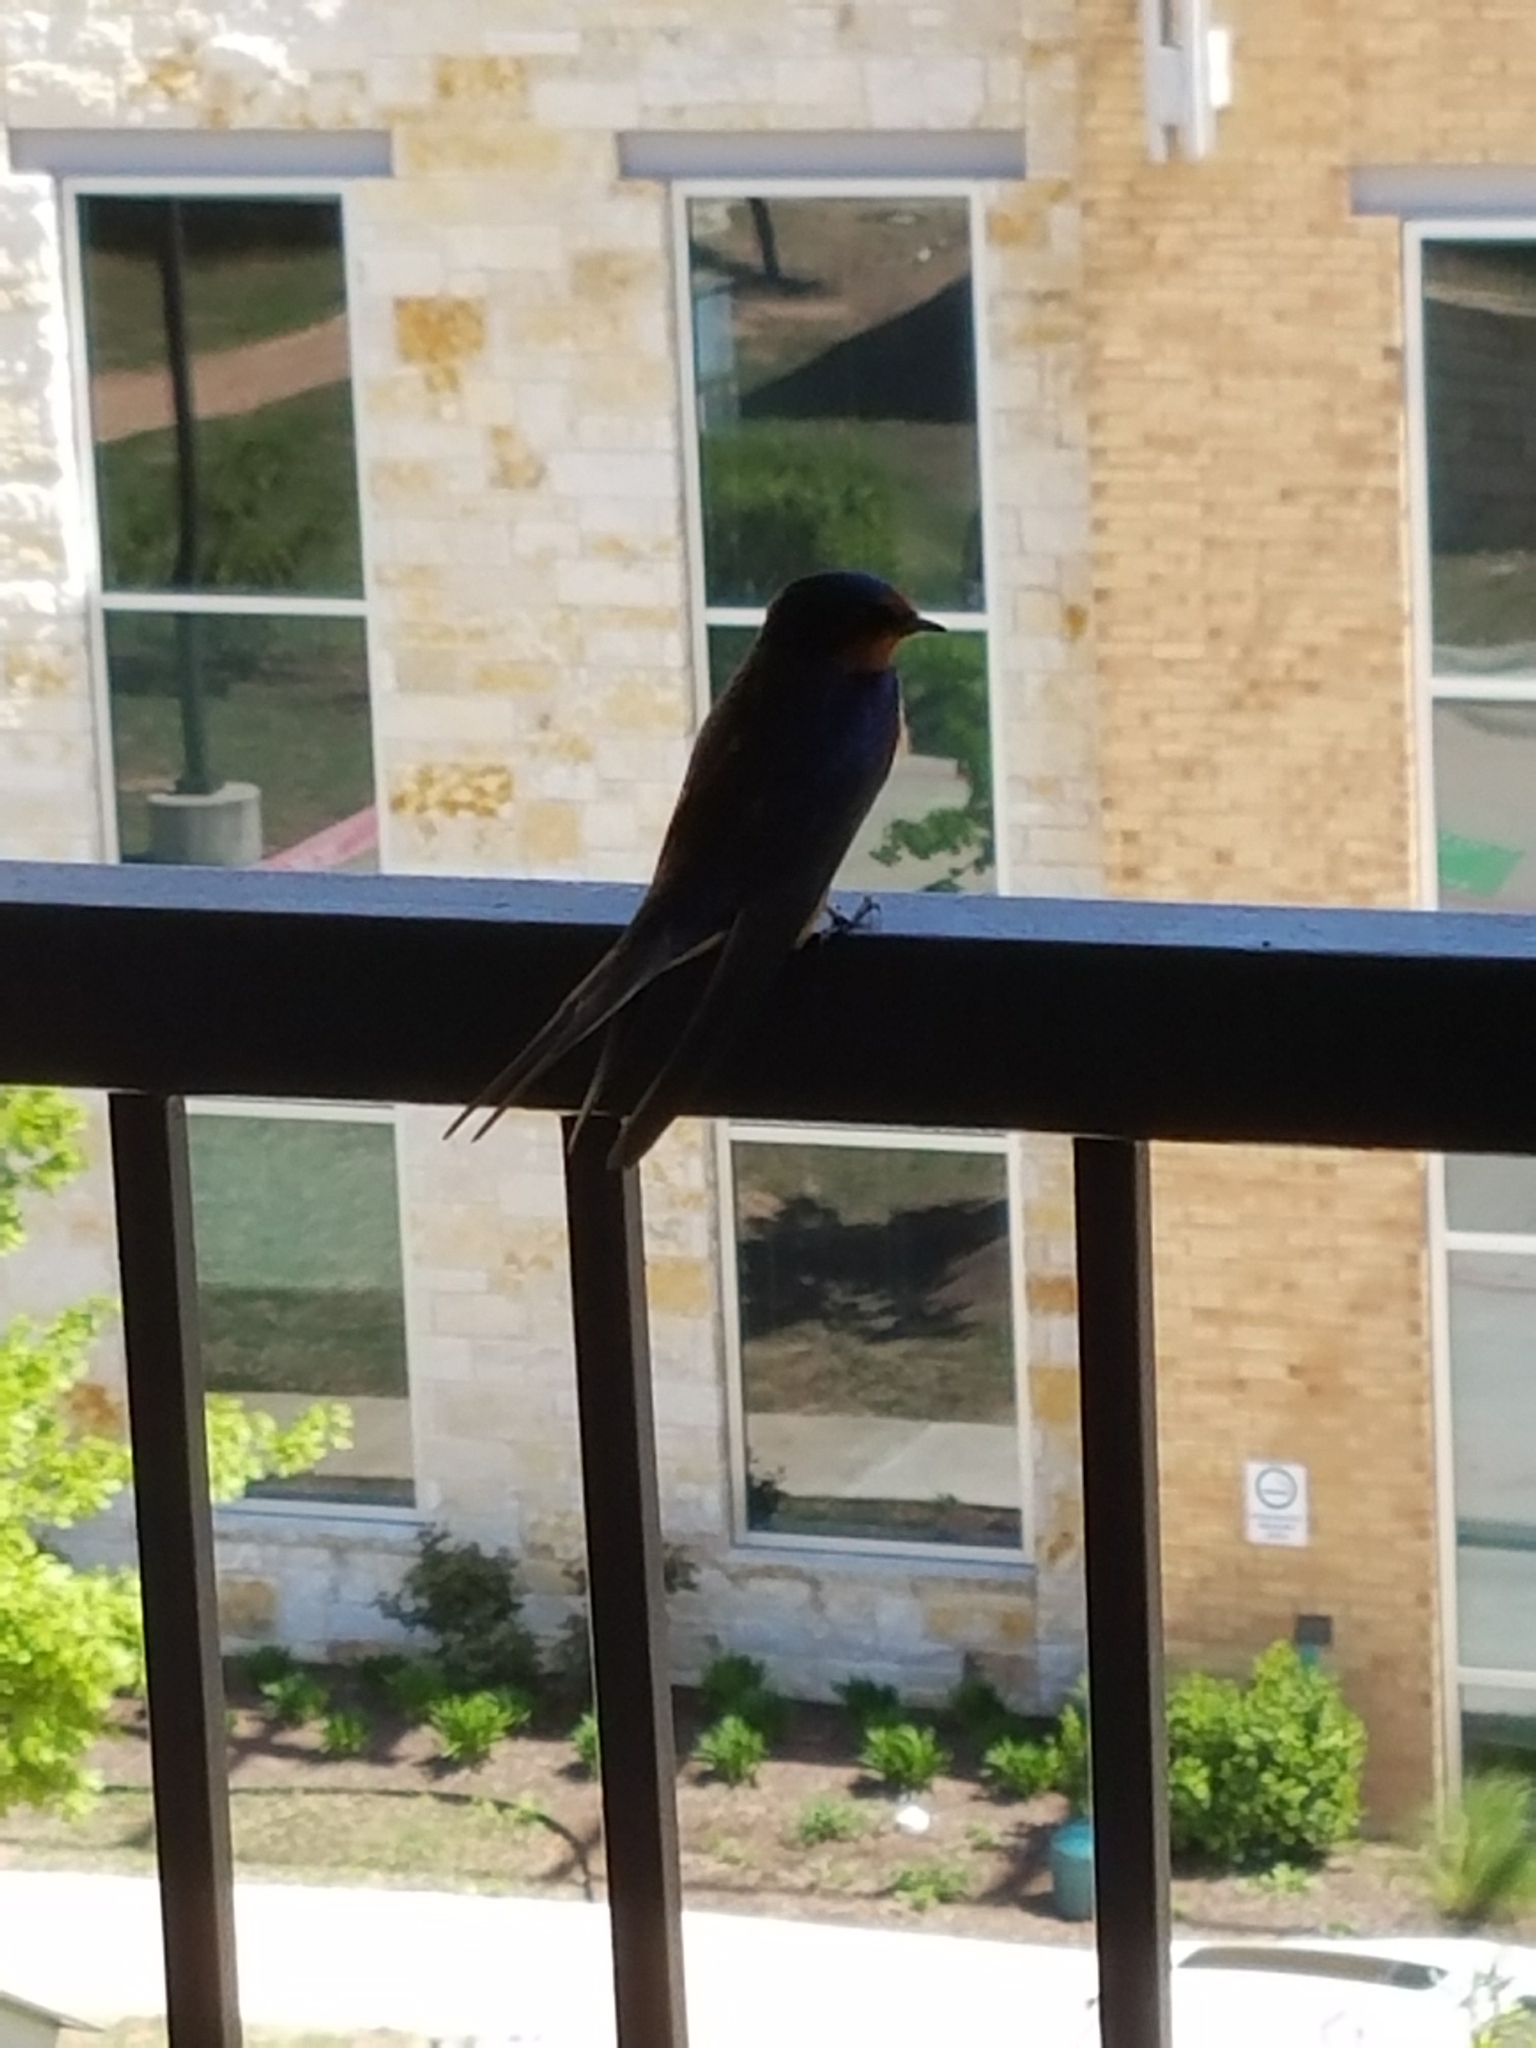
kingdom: Animalia
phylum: Chordata
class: Aves
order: Passeriformes
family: Hirundinidae
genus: Hirundo
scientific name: Hirundo rustica
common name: Barn swallow
